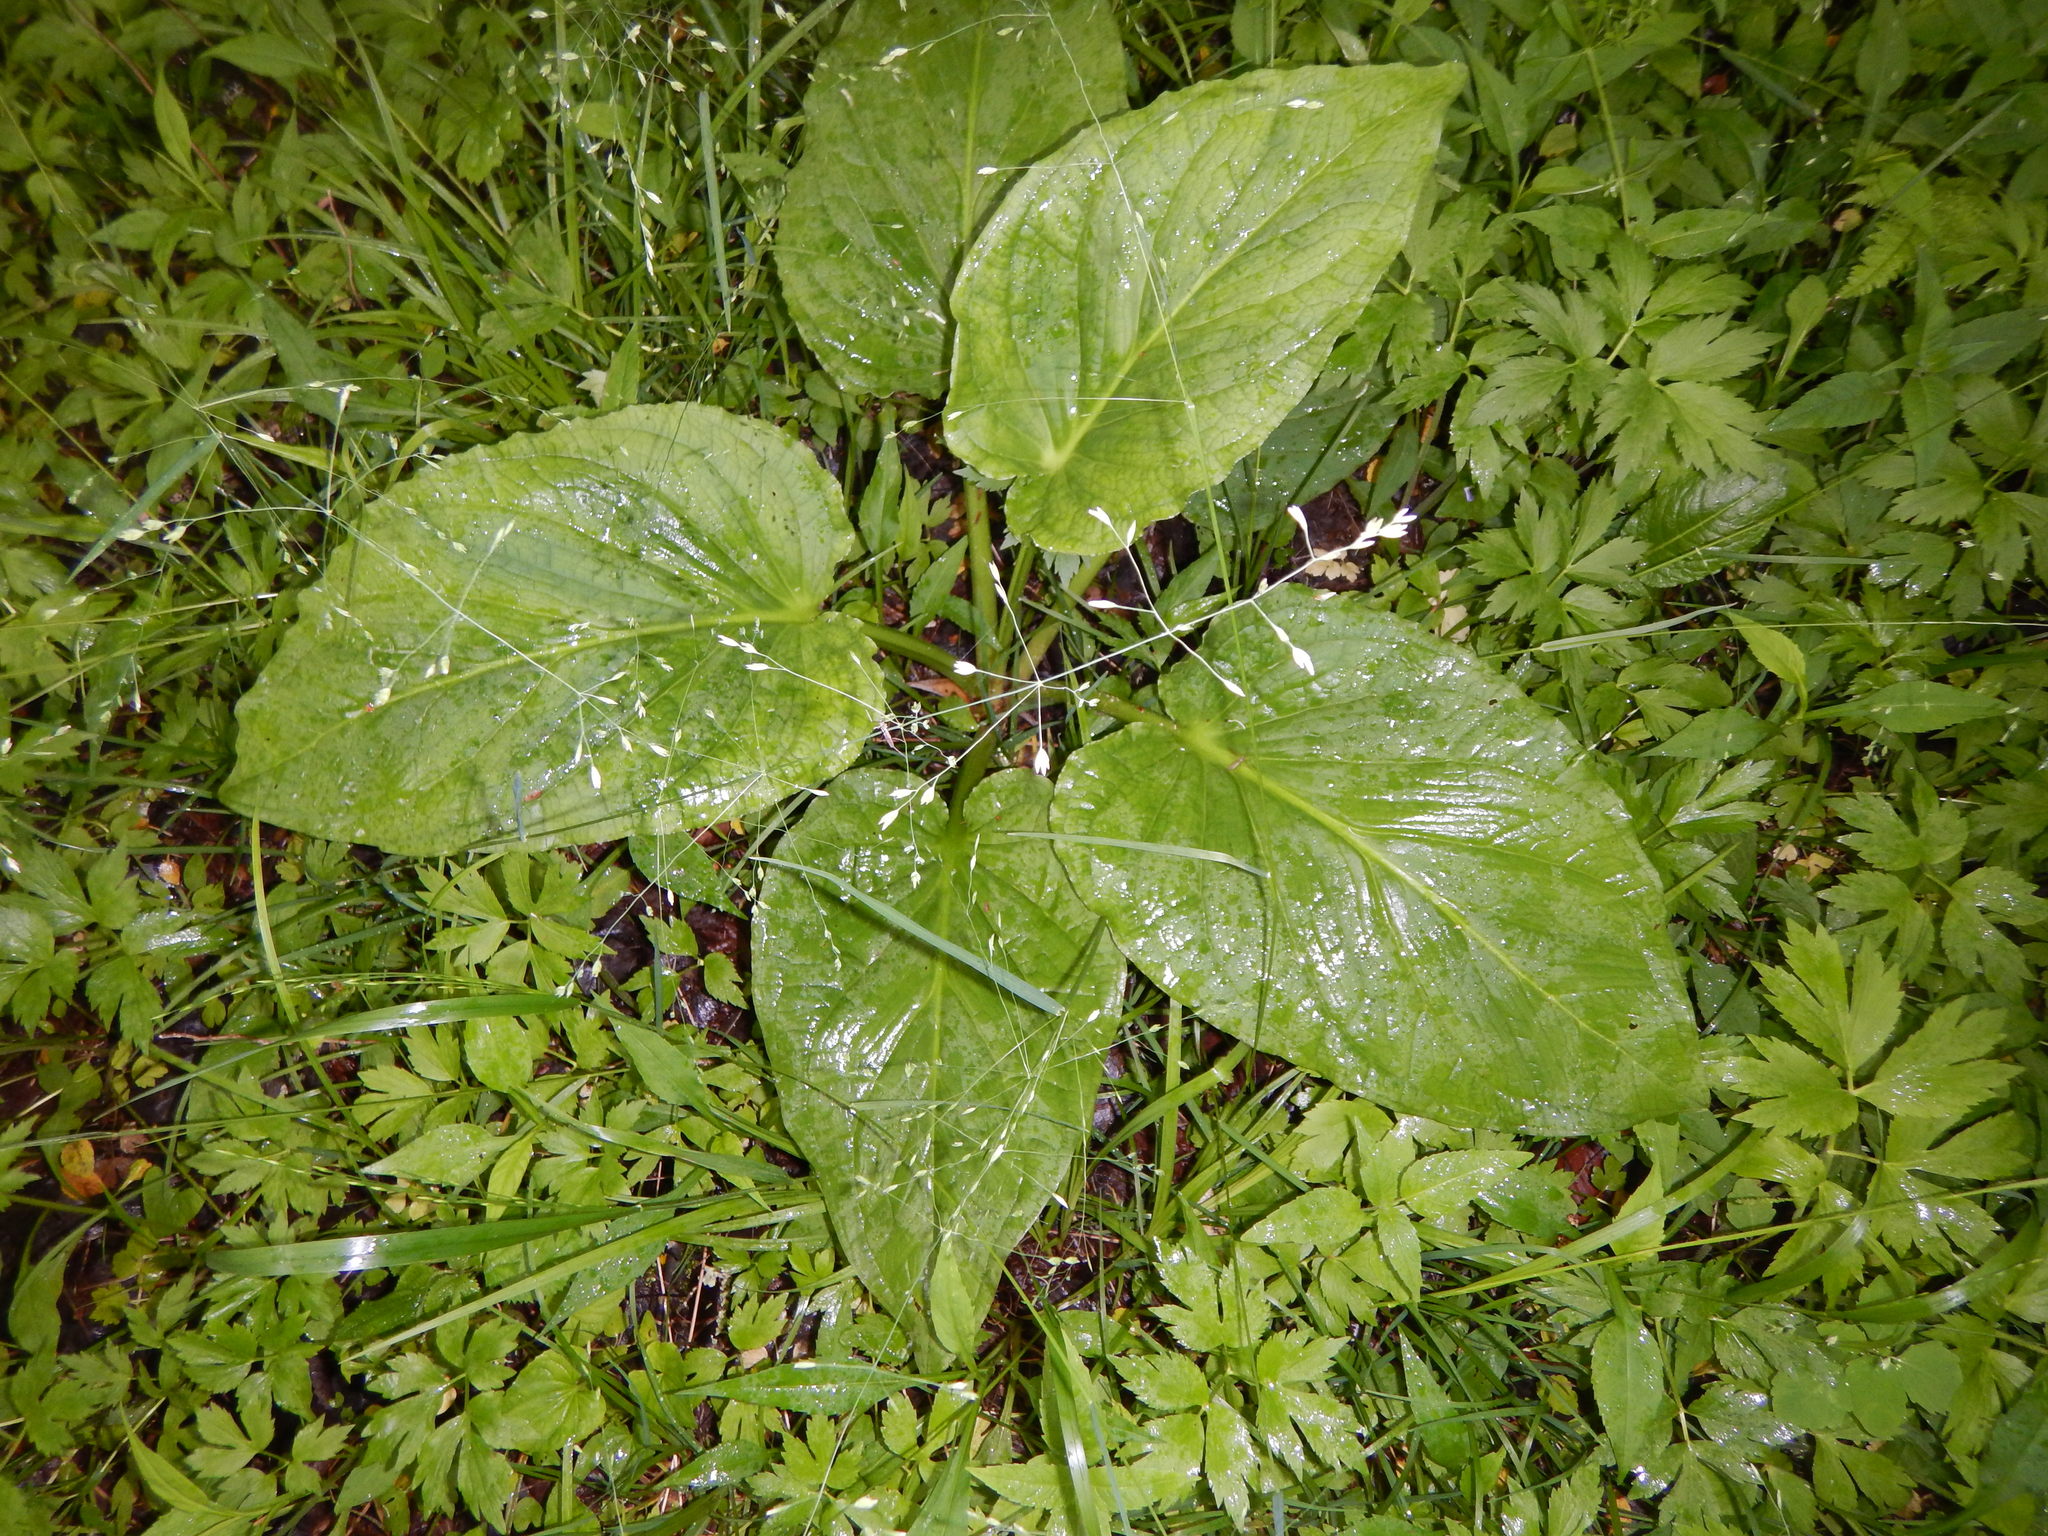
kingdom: Plantae
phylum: Tracheophyta
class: Liliopsida
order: Alismatales
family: Araceae
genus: Symplocarpus
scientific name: Symplocarpus foetidus
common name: Eastern skunk cabbage
